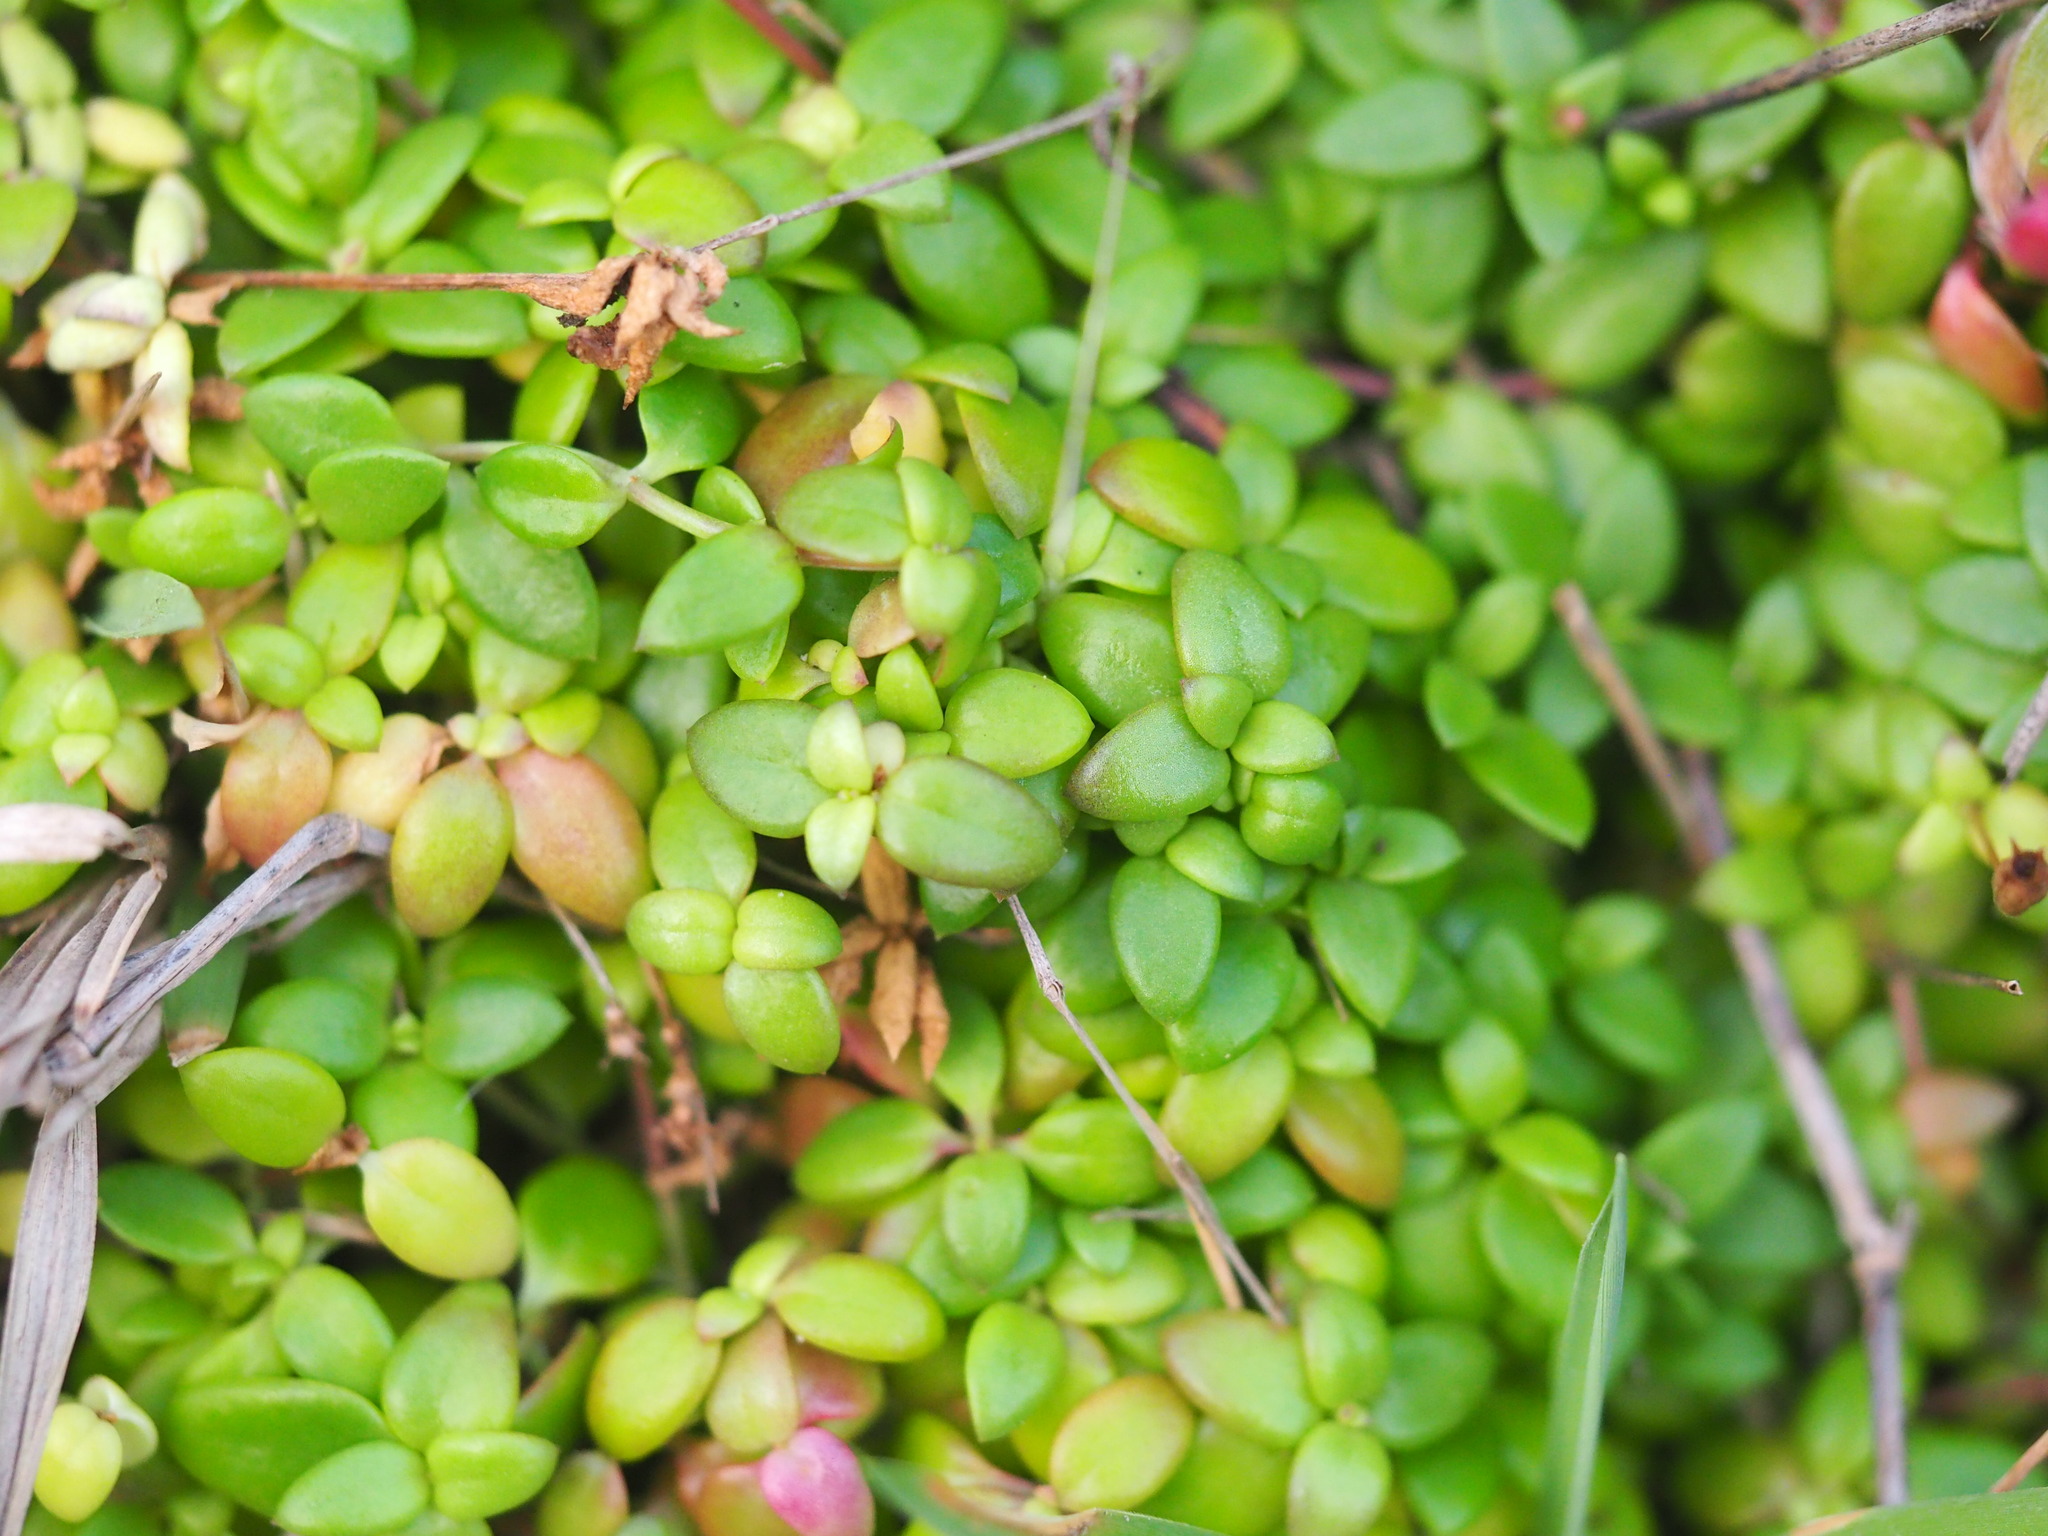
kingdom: Plantae
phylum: Tracheophyta
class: Magnoliopsida
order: Gentianales
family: Rubiaceae
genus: Leptopetalum
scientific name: Leptopetalum taiwanense
